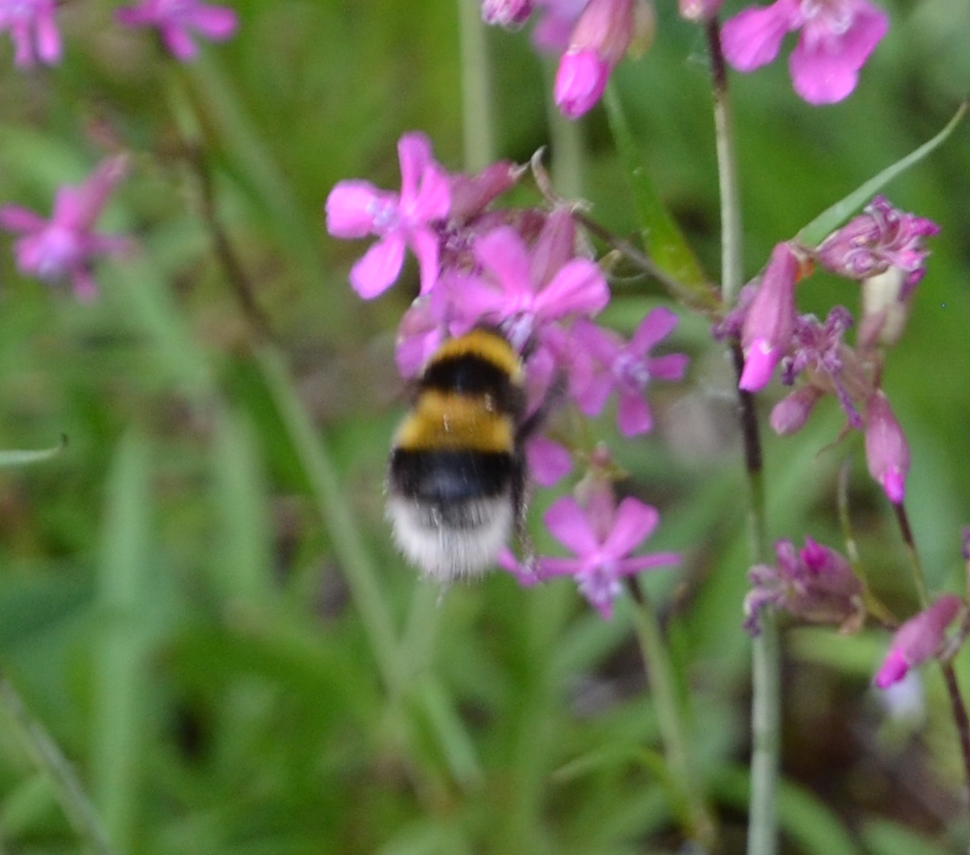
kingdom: Animalia
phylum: Arthropoda
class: Insecta
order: Hymenoptera
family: Apidae
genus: Bombus
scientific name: Bombus hortorum
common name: Garden bumblebee
